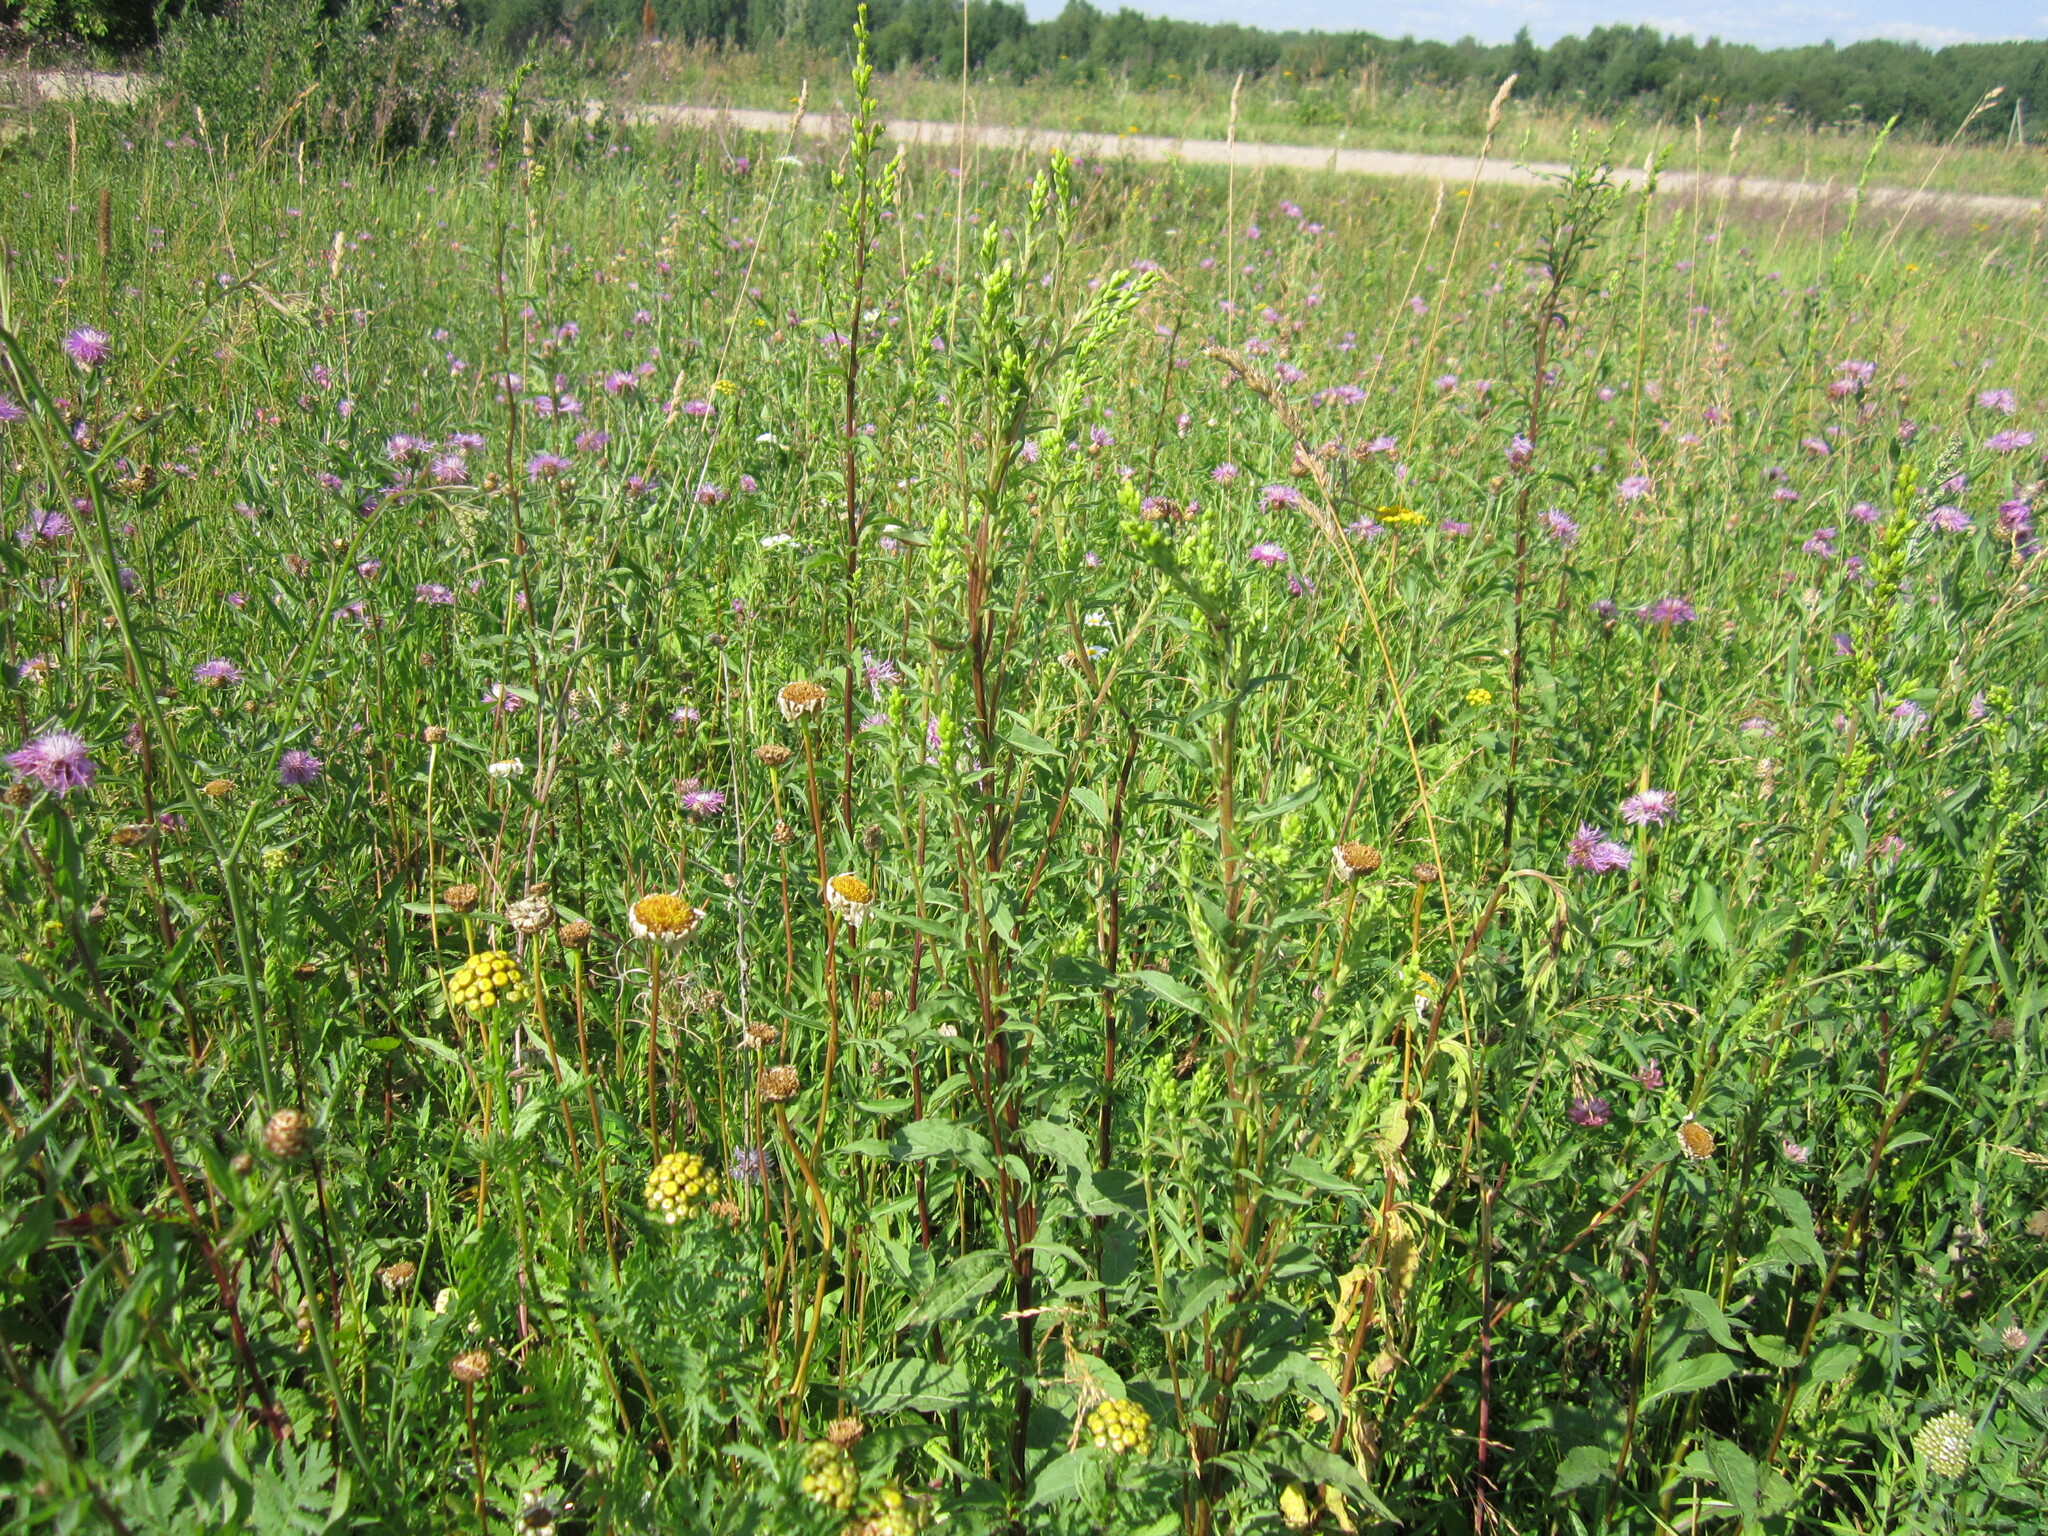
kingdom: Plantae
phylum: Tracheophyta
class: Magnoliopsida
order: Asterales
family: Asteraceae
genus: Solidago
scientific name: Solidago virgaurea
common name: Goldenrod
